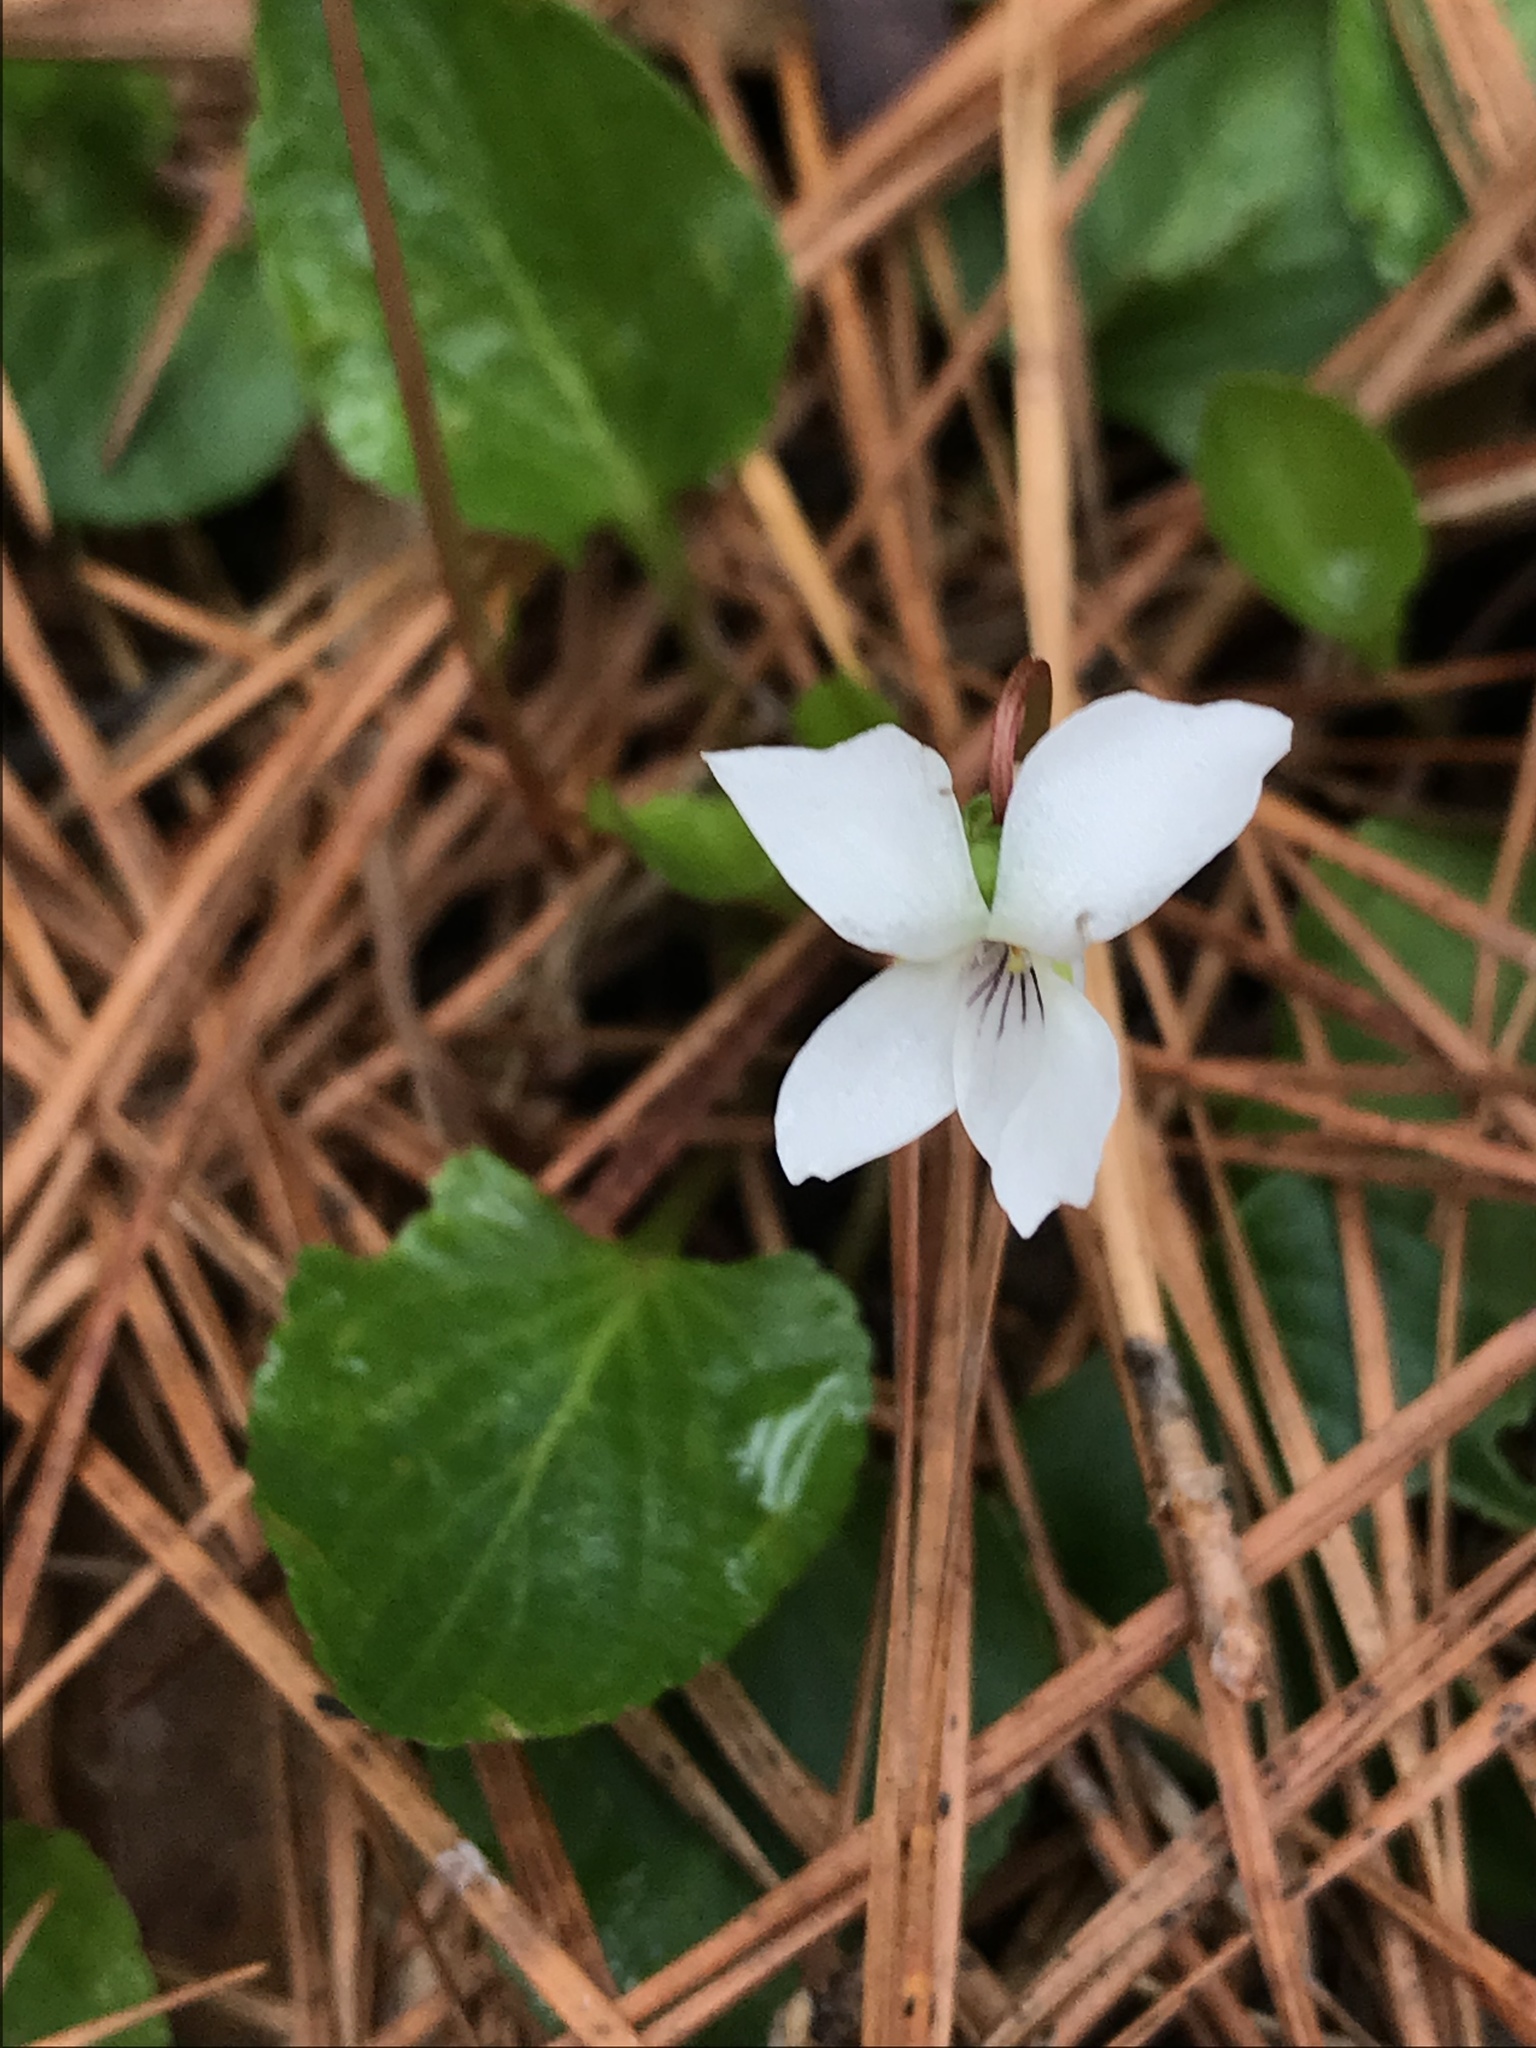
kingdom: Plantae
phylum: Tracheophyta
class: Magnoliopsida
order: Malpighiales
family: Violaceae
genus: Viola
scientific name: Viola primulifolia
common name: Primrose-leaf violet
